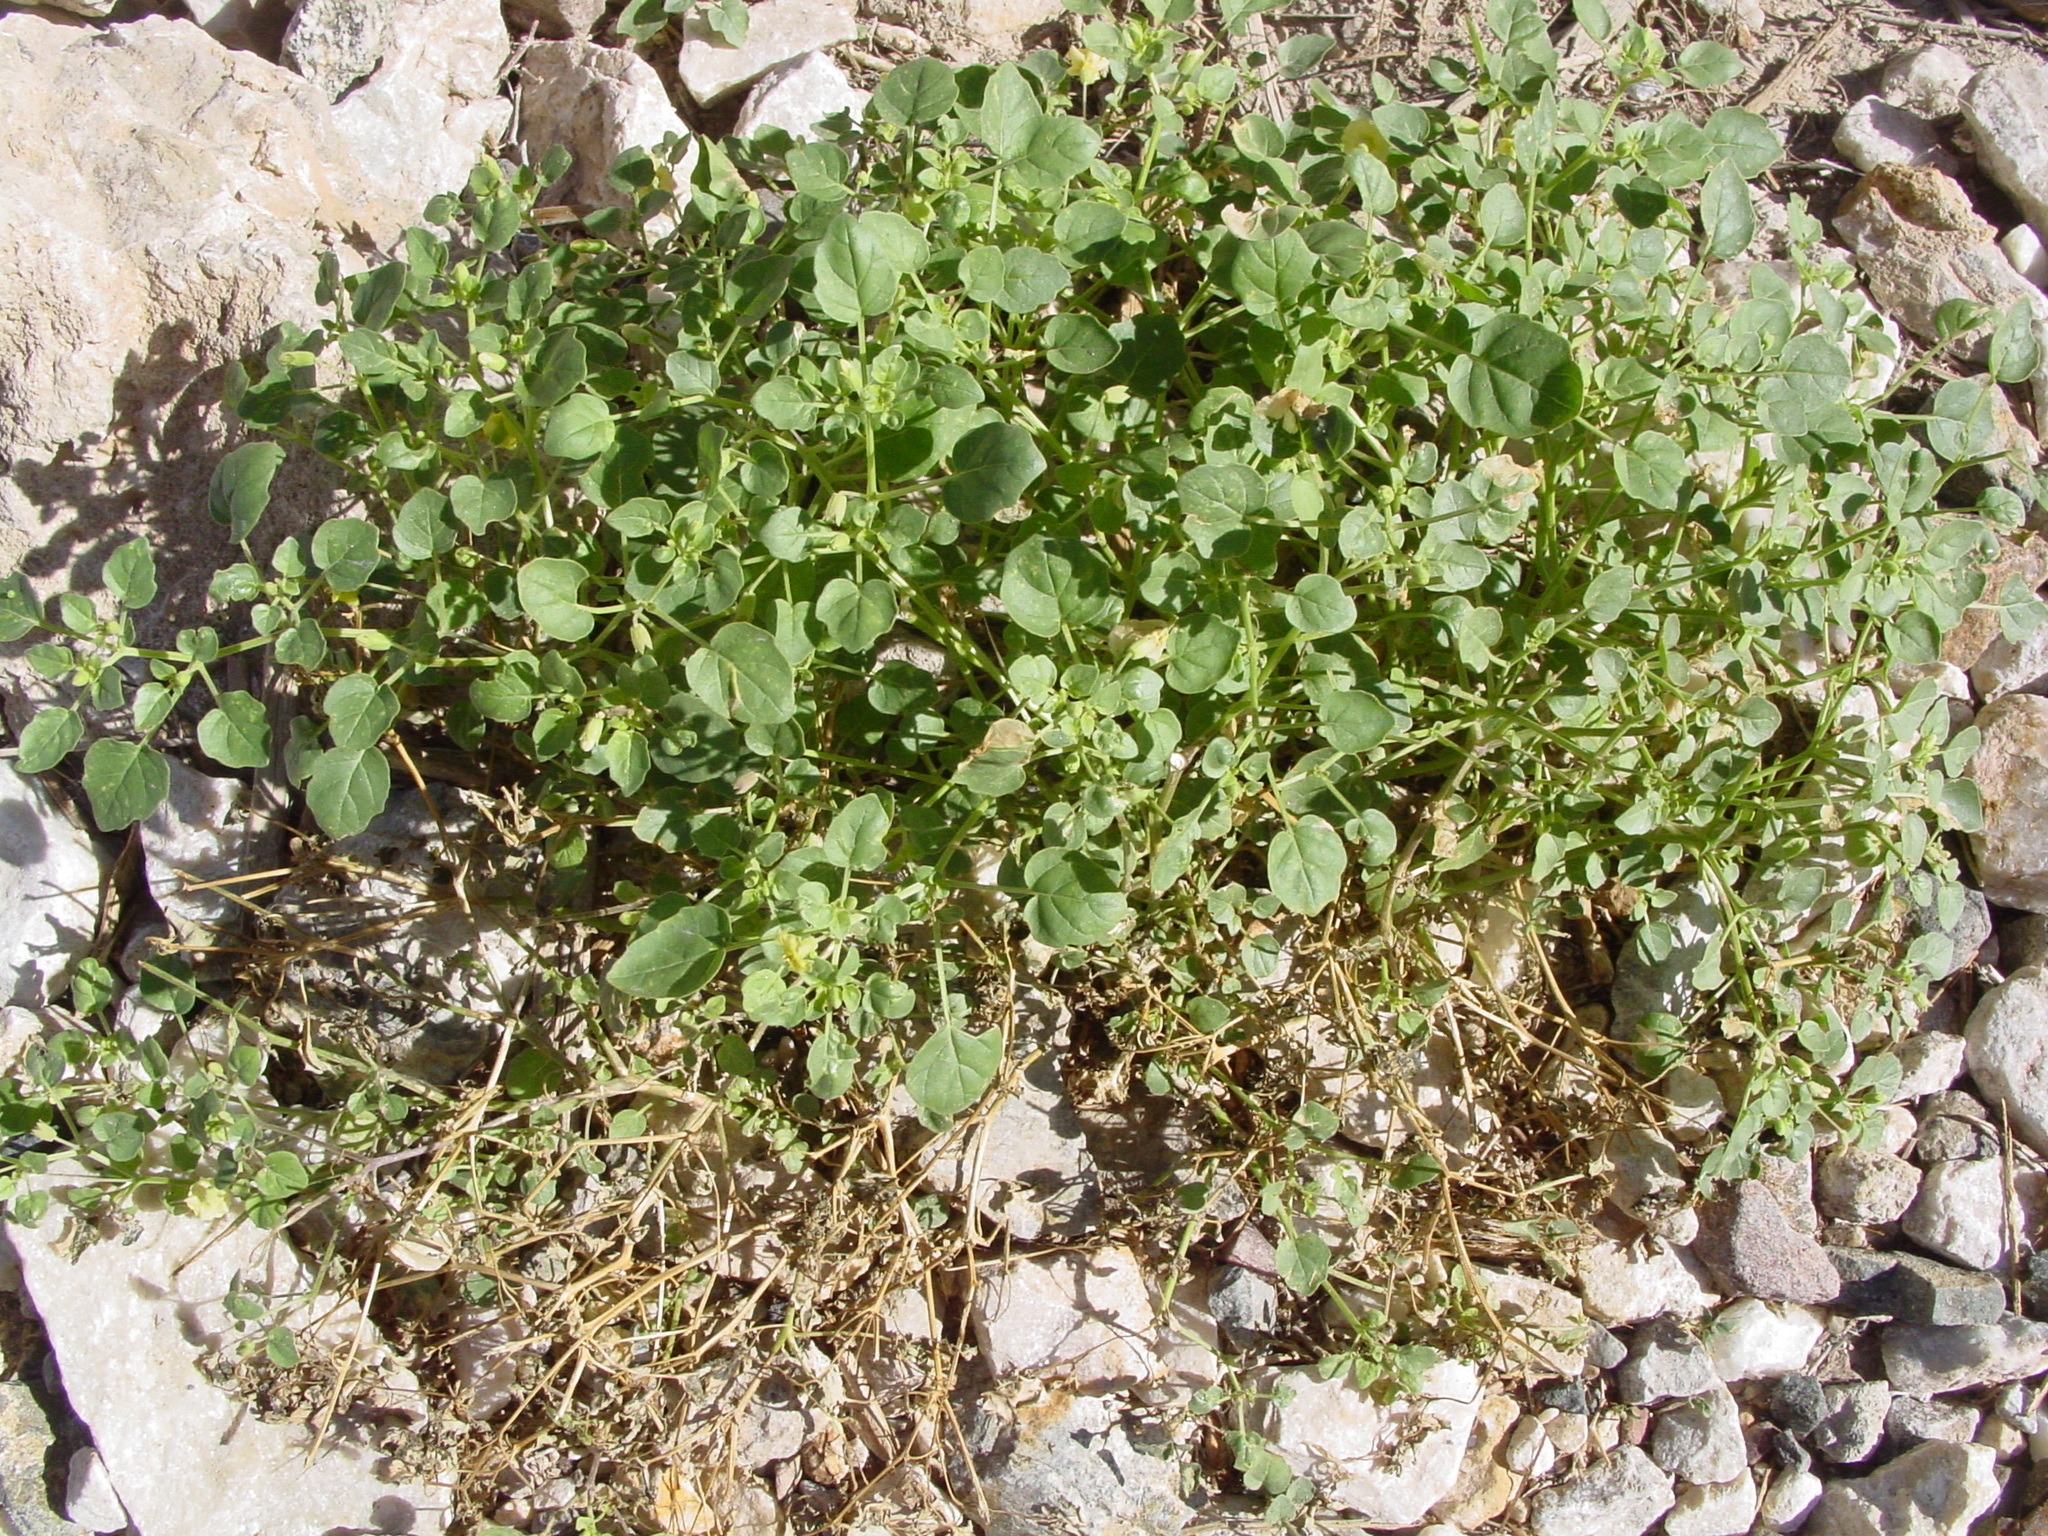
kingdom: Plantae
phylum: Tracheophyta
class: Magnoliopsida
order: Solanales
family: Solanaceae
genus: Physalis
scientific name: Physalis crassifolia
